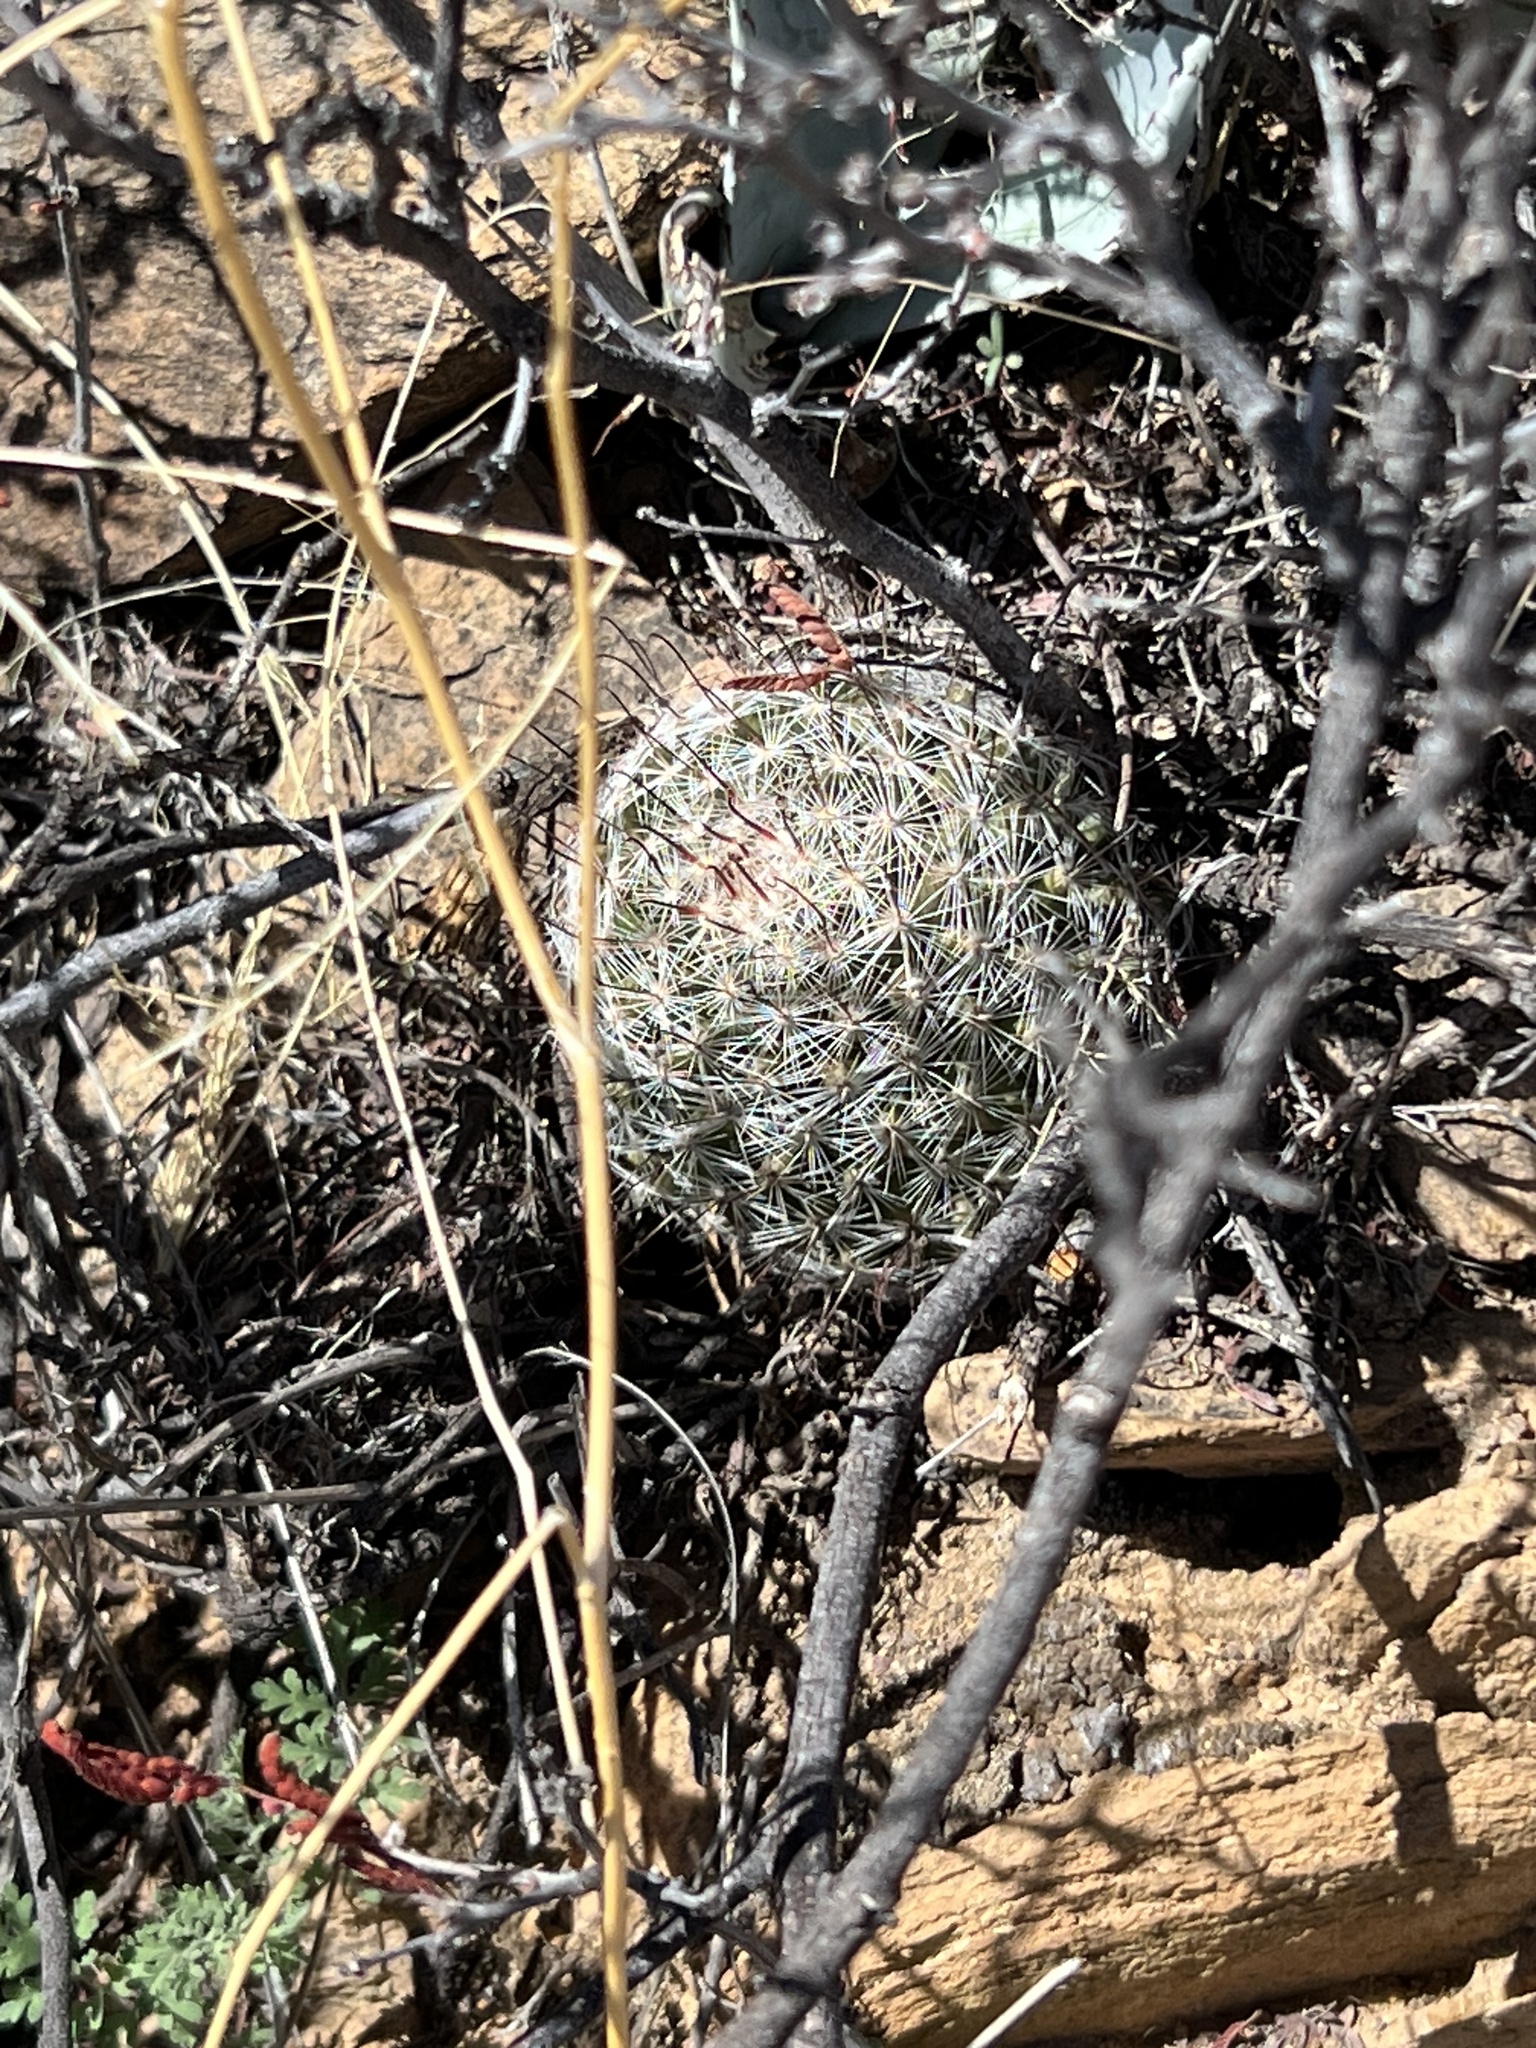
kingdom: Plantae
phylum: Tracheophyta
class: Magnoliopsida
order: Caryophyllales
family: Cactaceae
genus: Cochemiea
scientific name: Cochemiea grahamii
